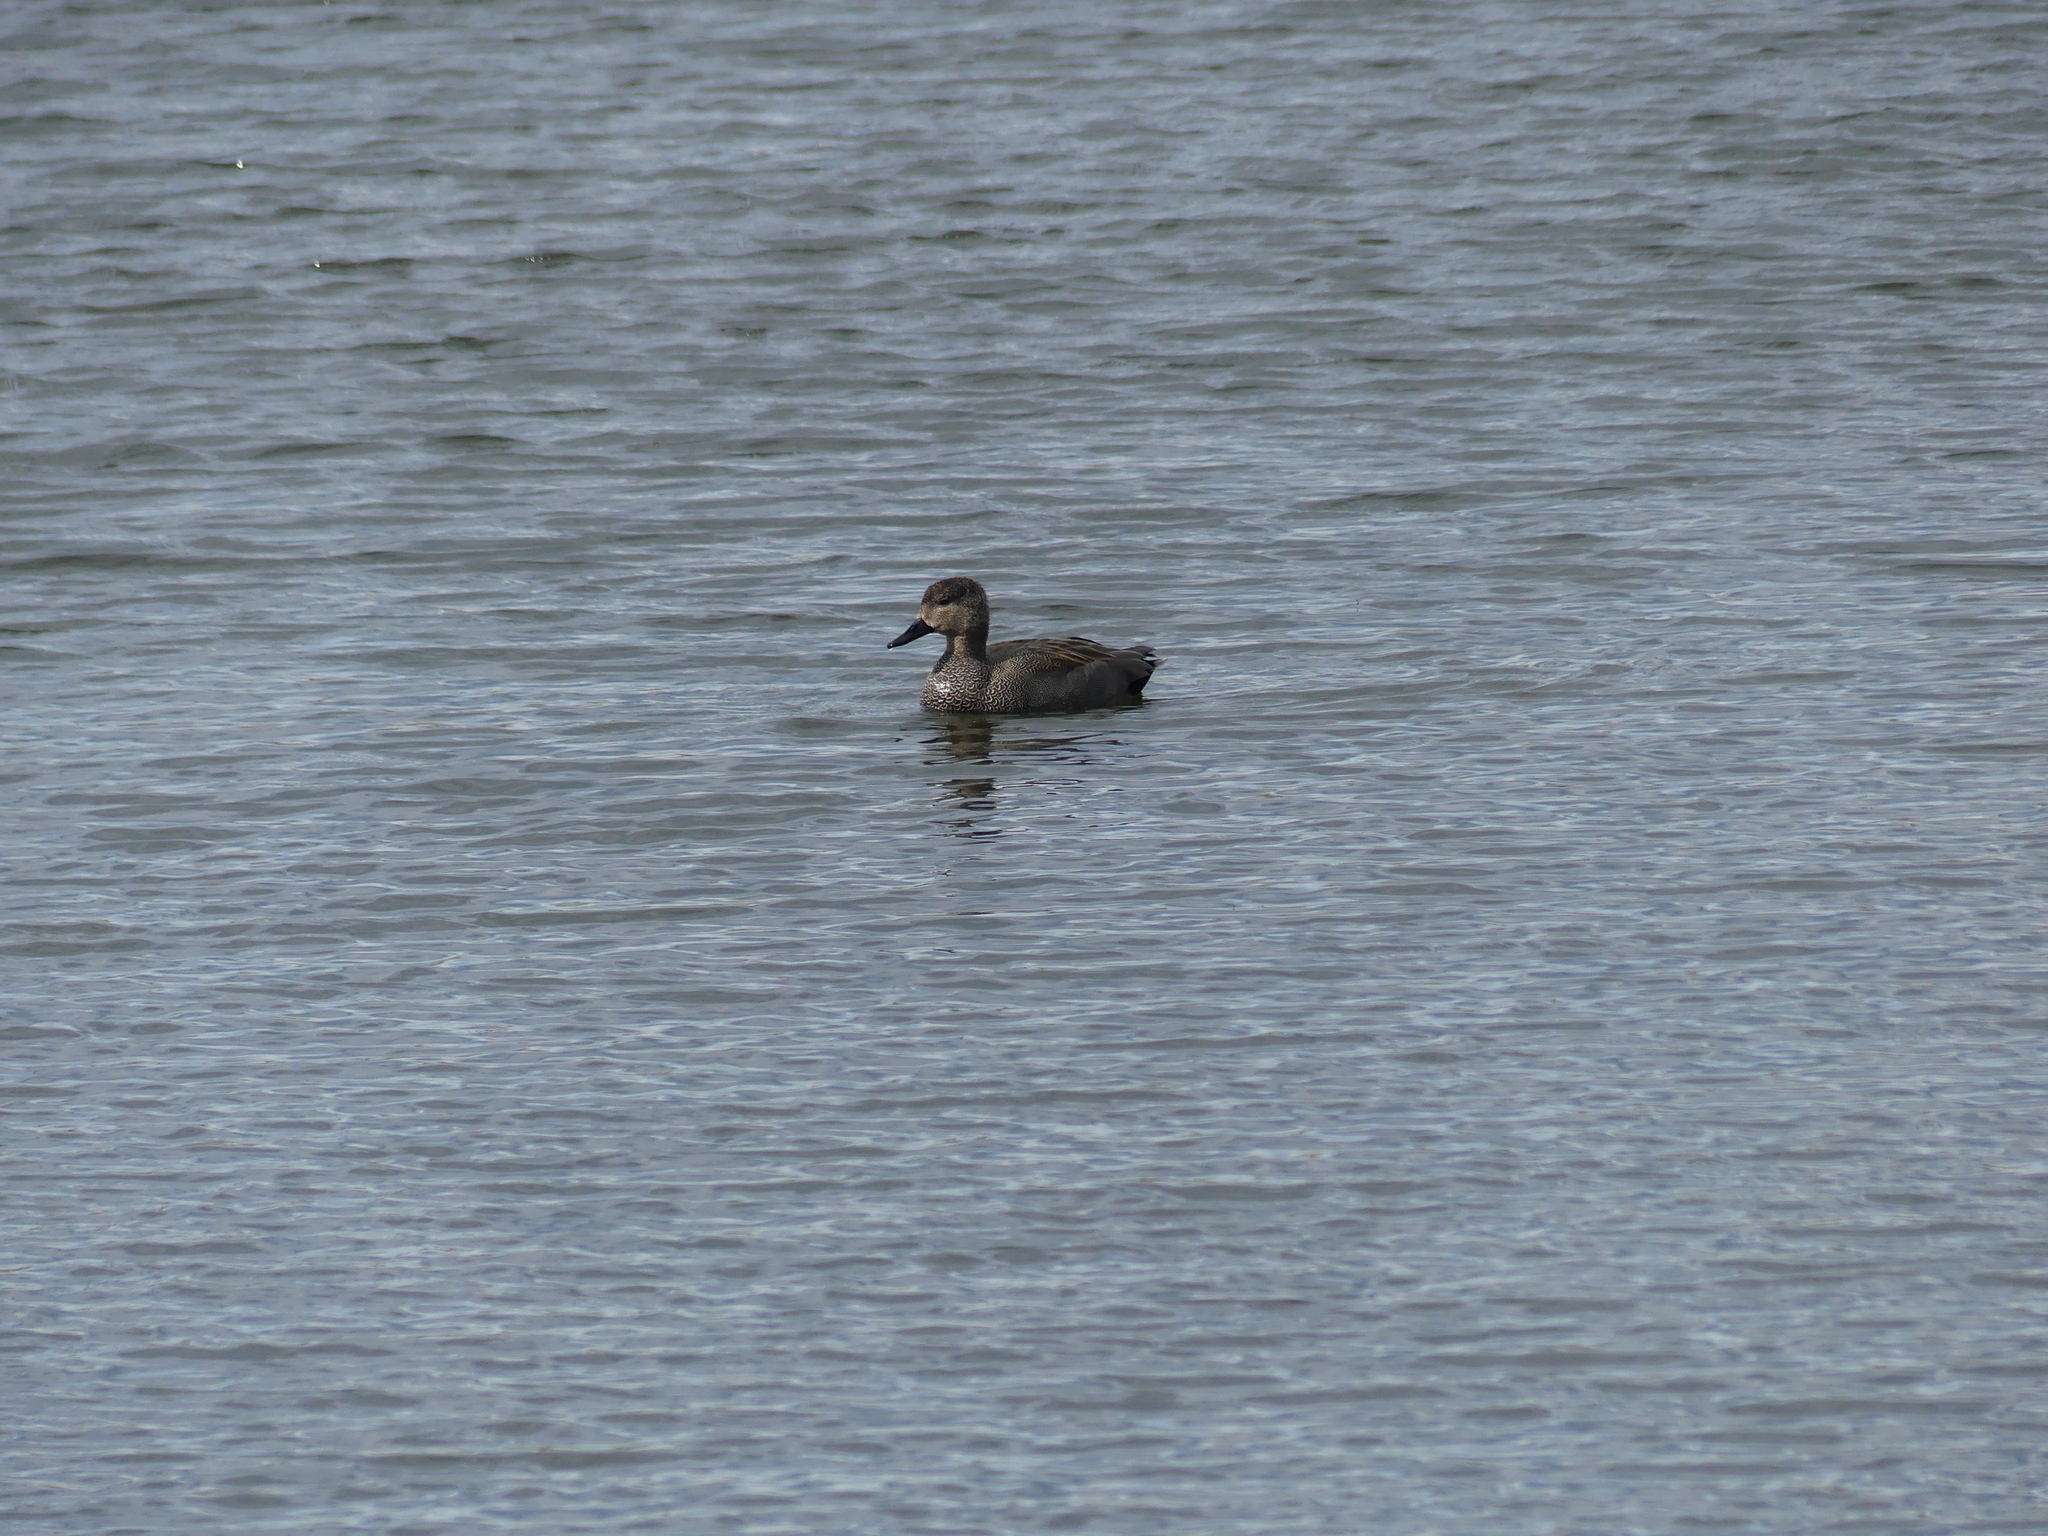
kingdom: Animalia
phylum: Chordata
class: Aves
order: Anseriformes
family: Anatidae
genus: Mareca
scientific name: Mareca strepera
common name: Gadwall
